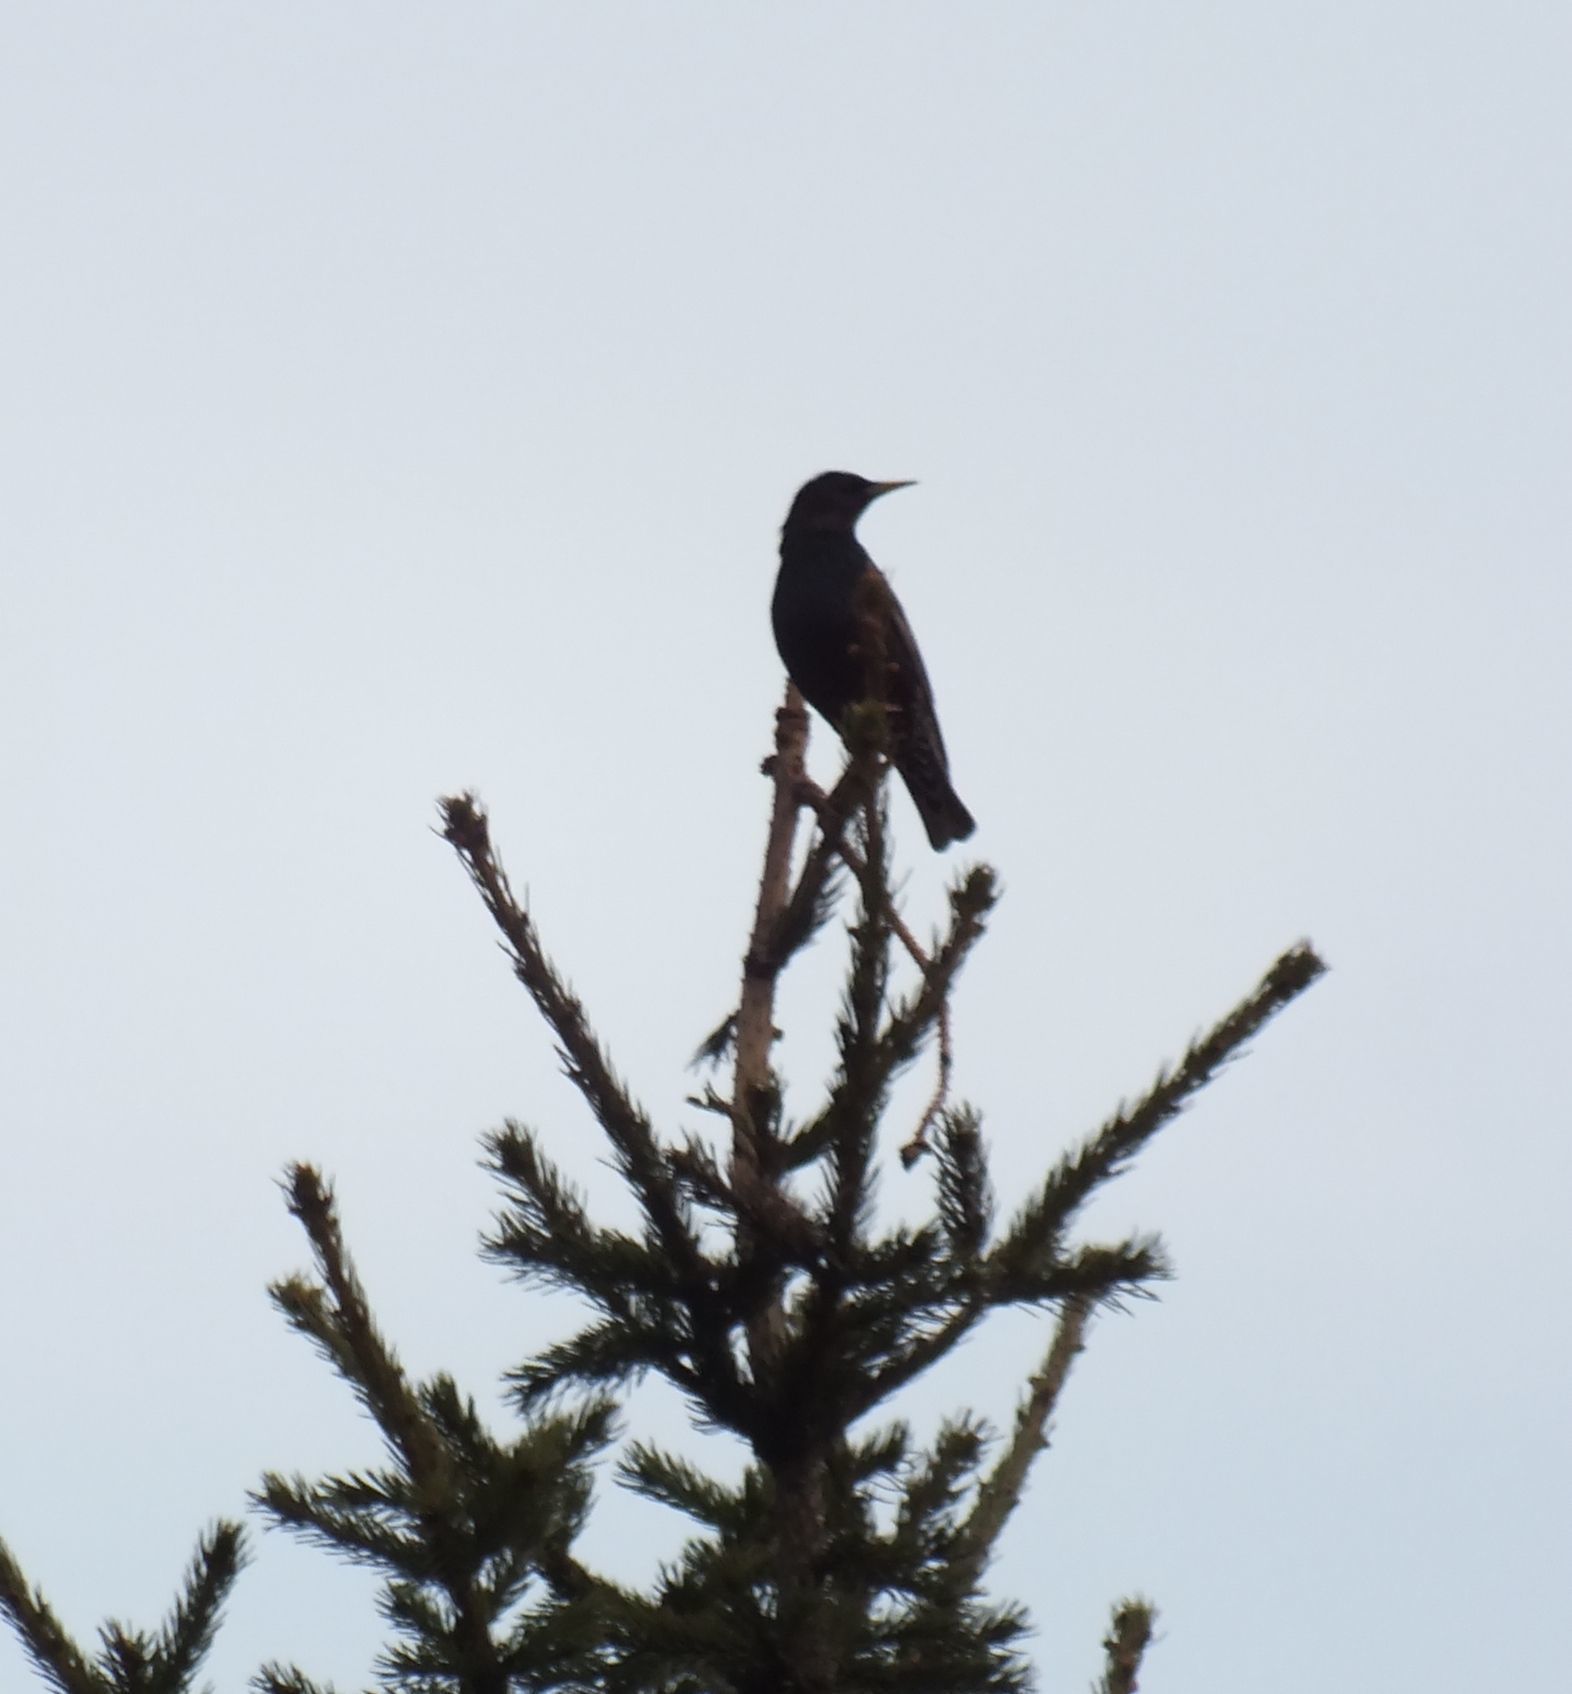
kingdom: Animalia
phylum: Chordata
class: Aves
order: Passeriformes
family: Sturnidae
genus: Sturnus
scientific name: Sturnus vulgaris
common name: Common starling
